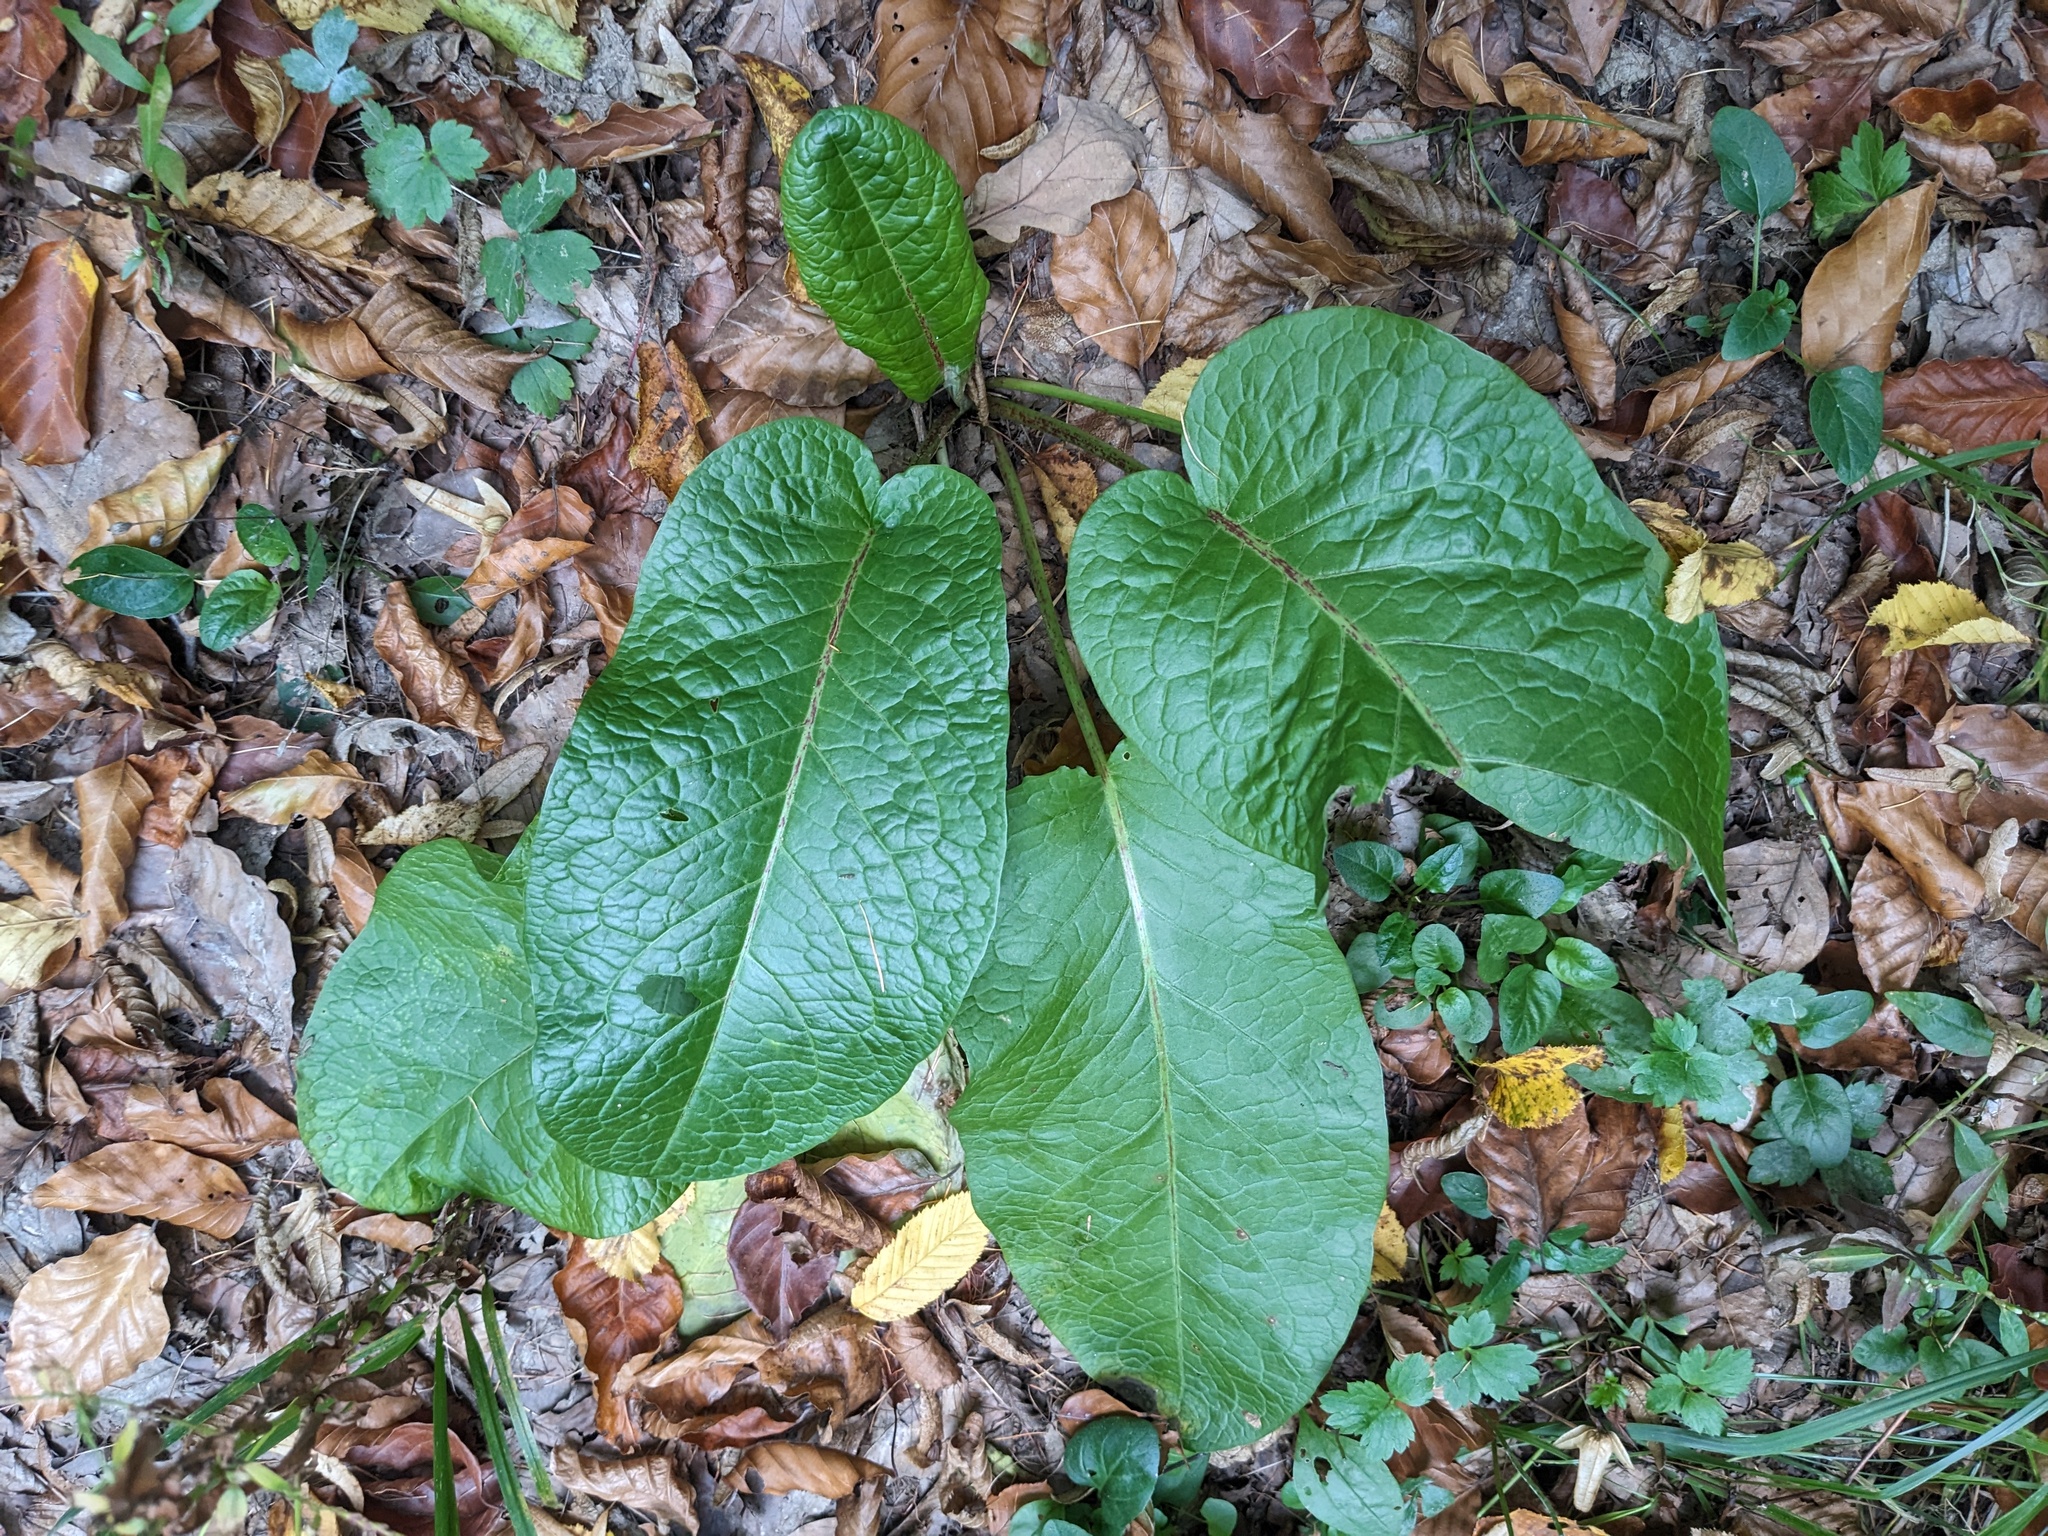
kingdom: Plantae
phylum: Tracheophyta
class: Magnoliopsida
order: Caryophyllales
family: Polygonaceae
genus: Rumex
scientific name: Rumex obtusifolius
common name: Bitter dock
